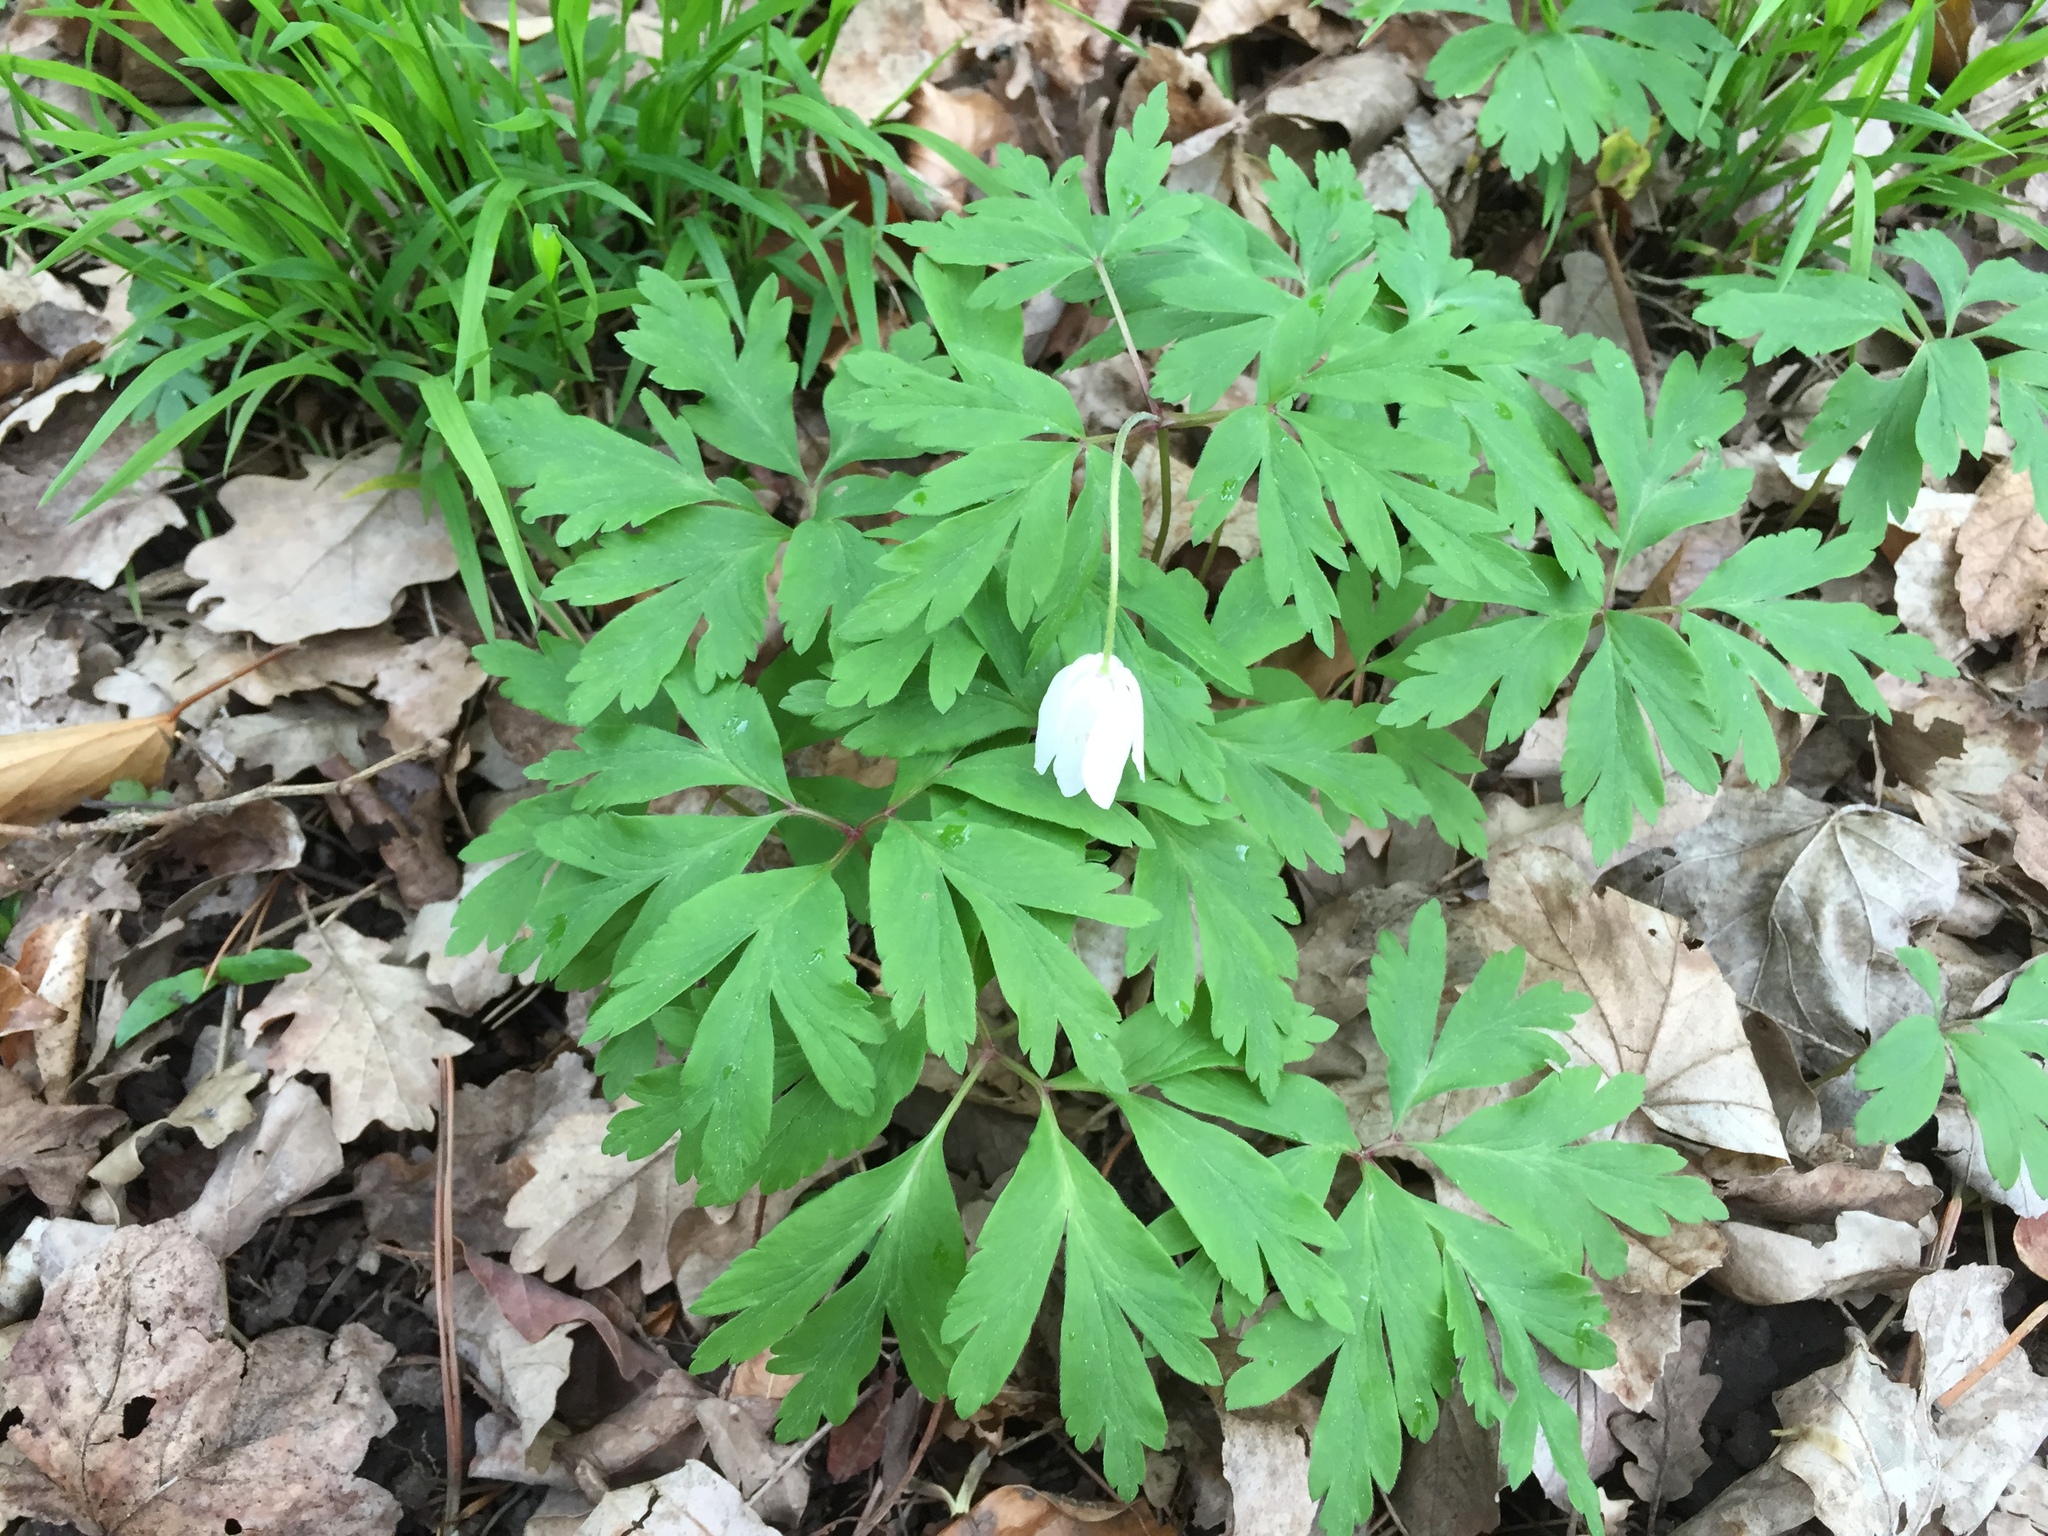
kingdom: Plantae
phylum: Tracheophyta
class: Magnoliopsida
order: Ranunculales
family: Ranunculaceae
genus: Anemone
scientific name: Anemone nemorosa
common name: Wood anemone
